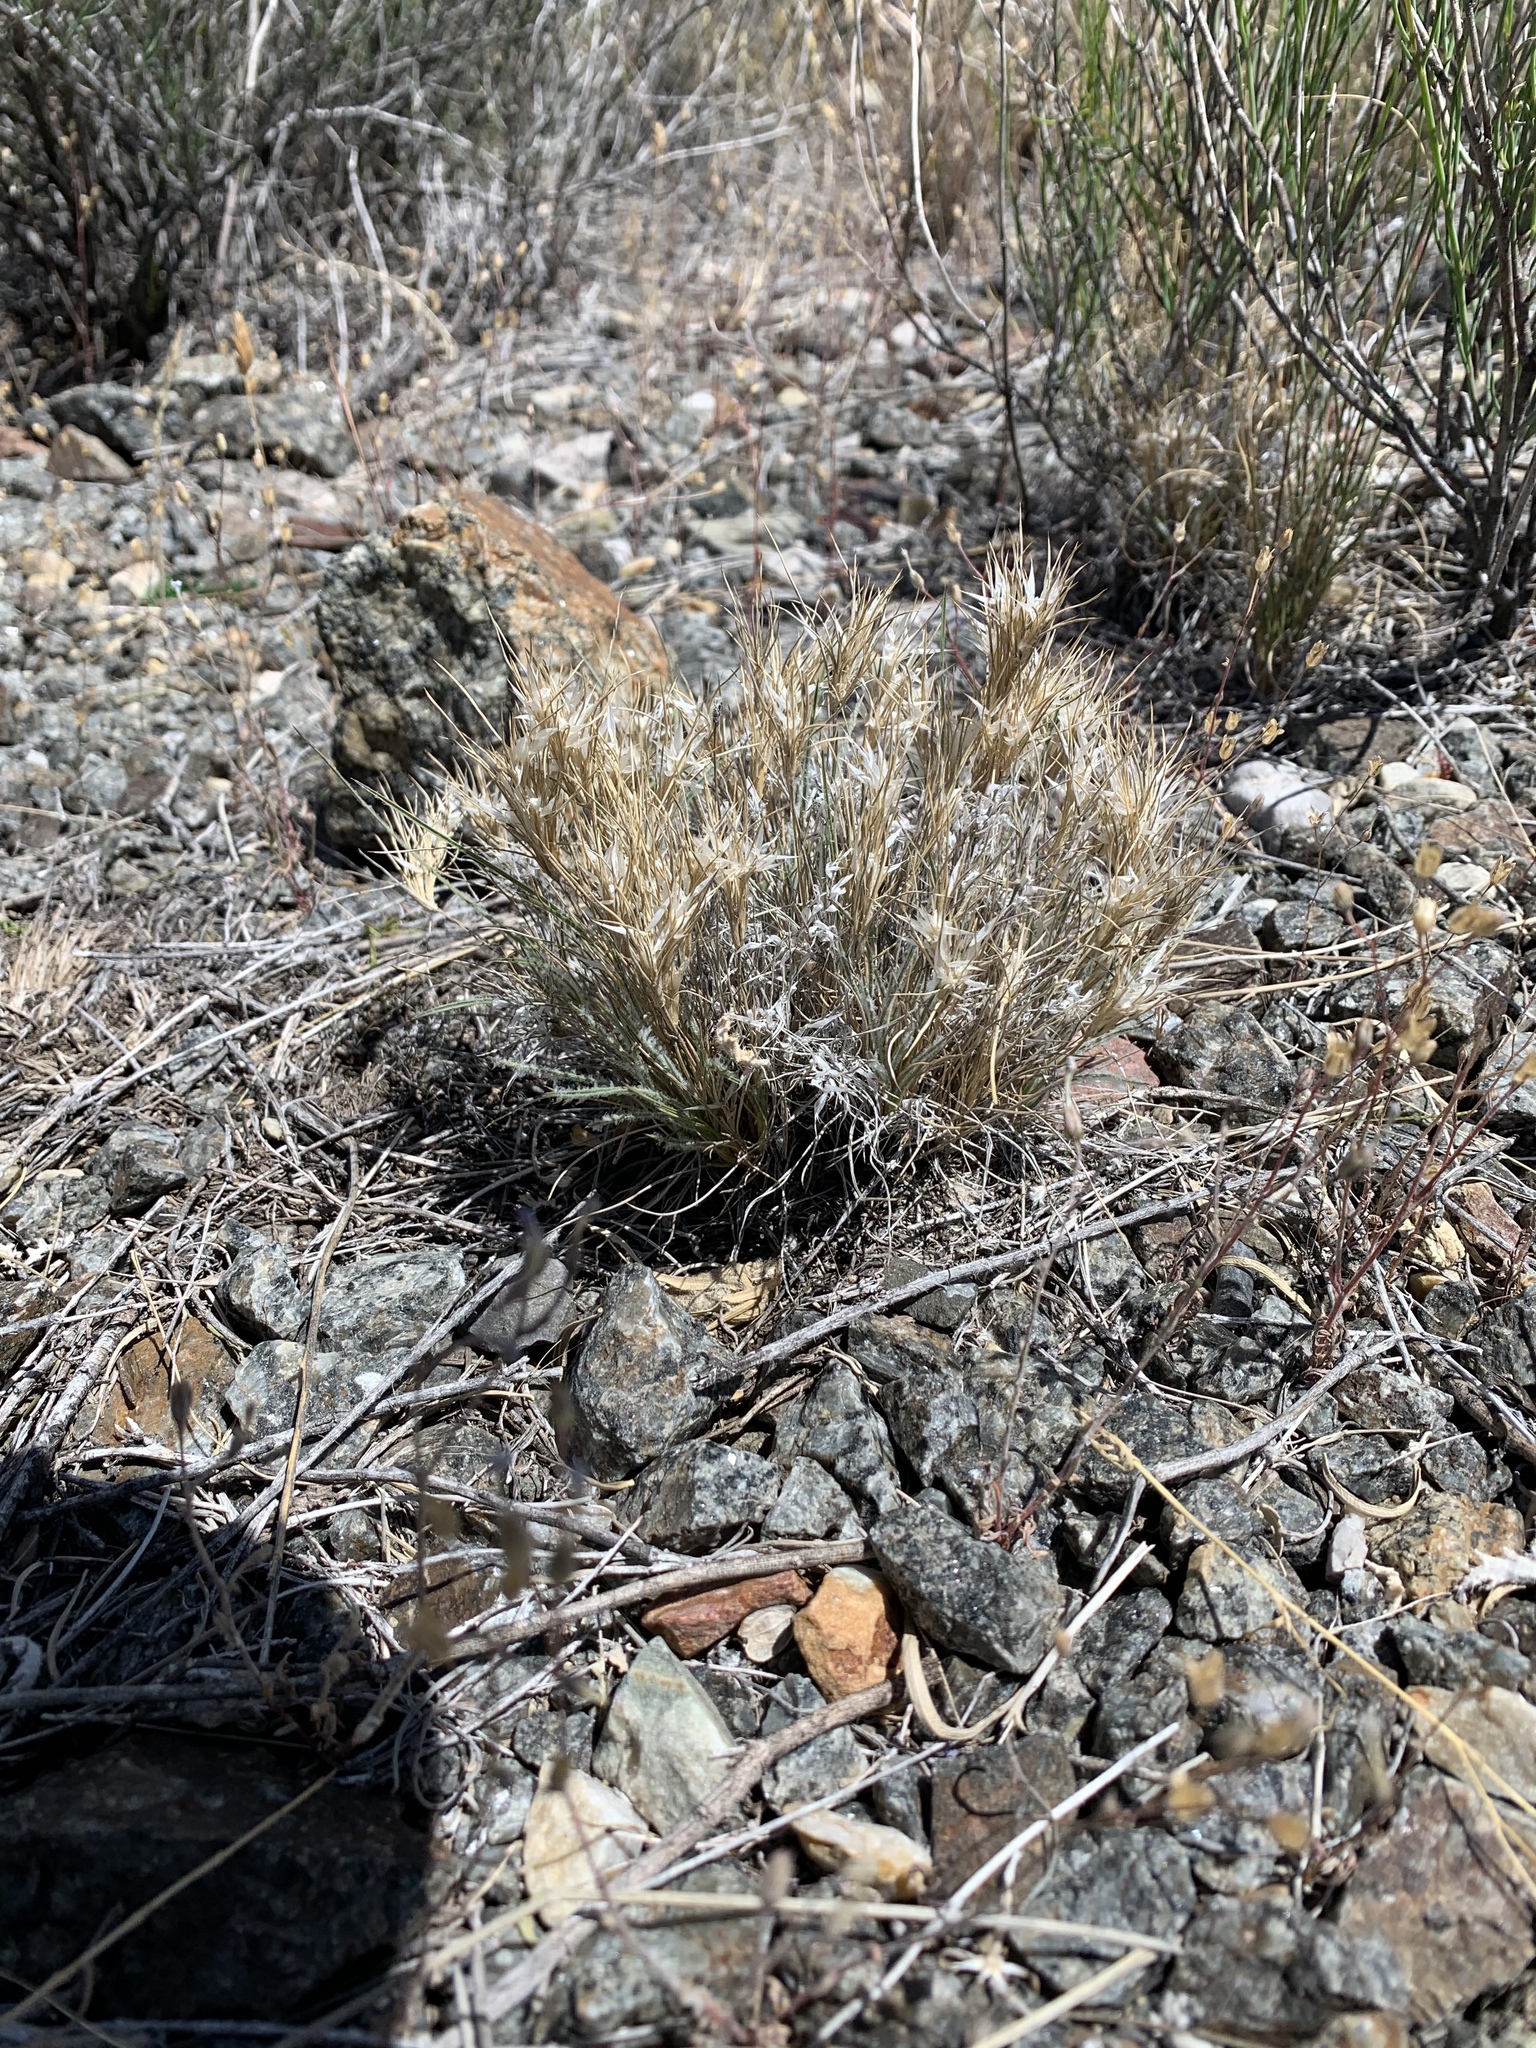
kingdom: Plantae
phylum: Tracheophyta
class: Liliopsida
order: Poales
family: Poaceae
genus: Dasyochloa
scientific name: Dasyochloa pulchella
